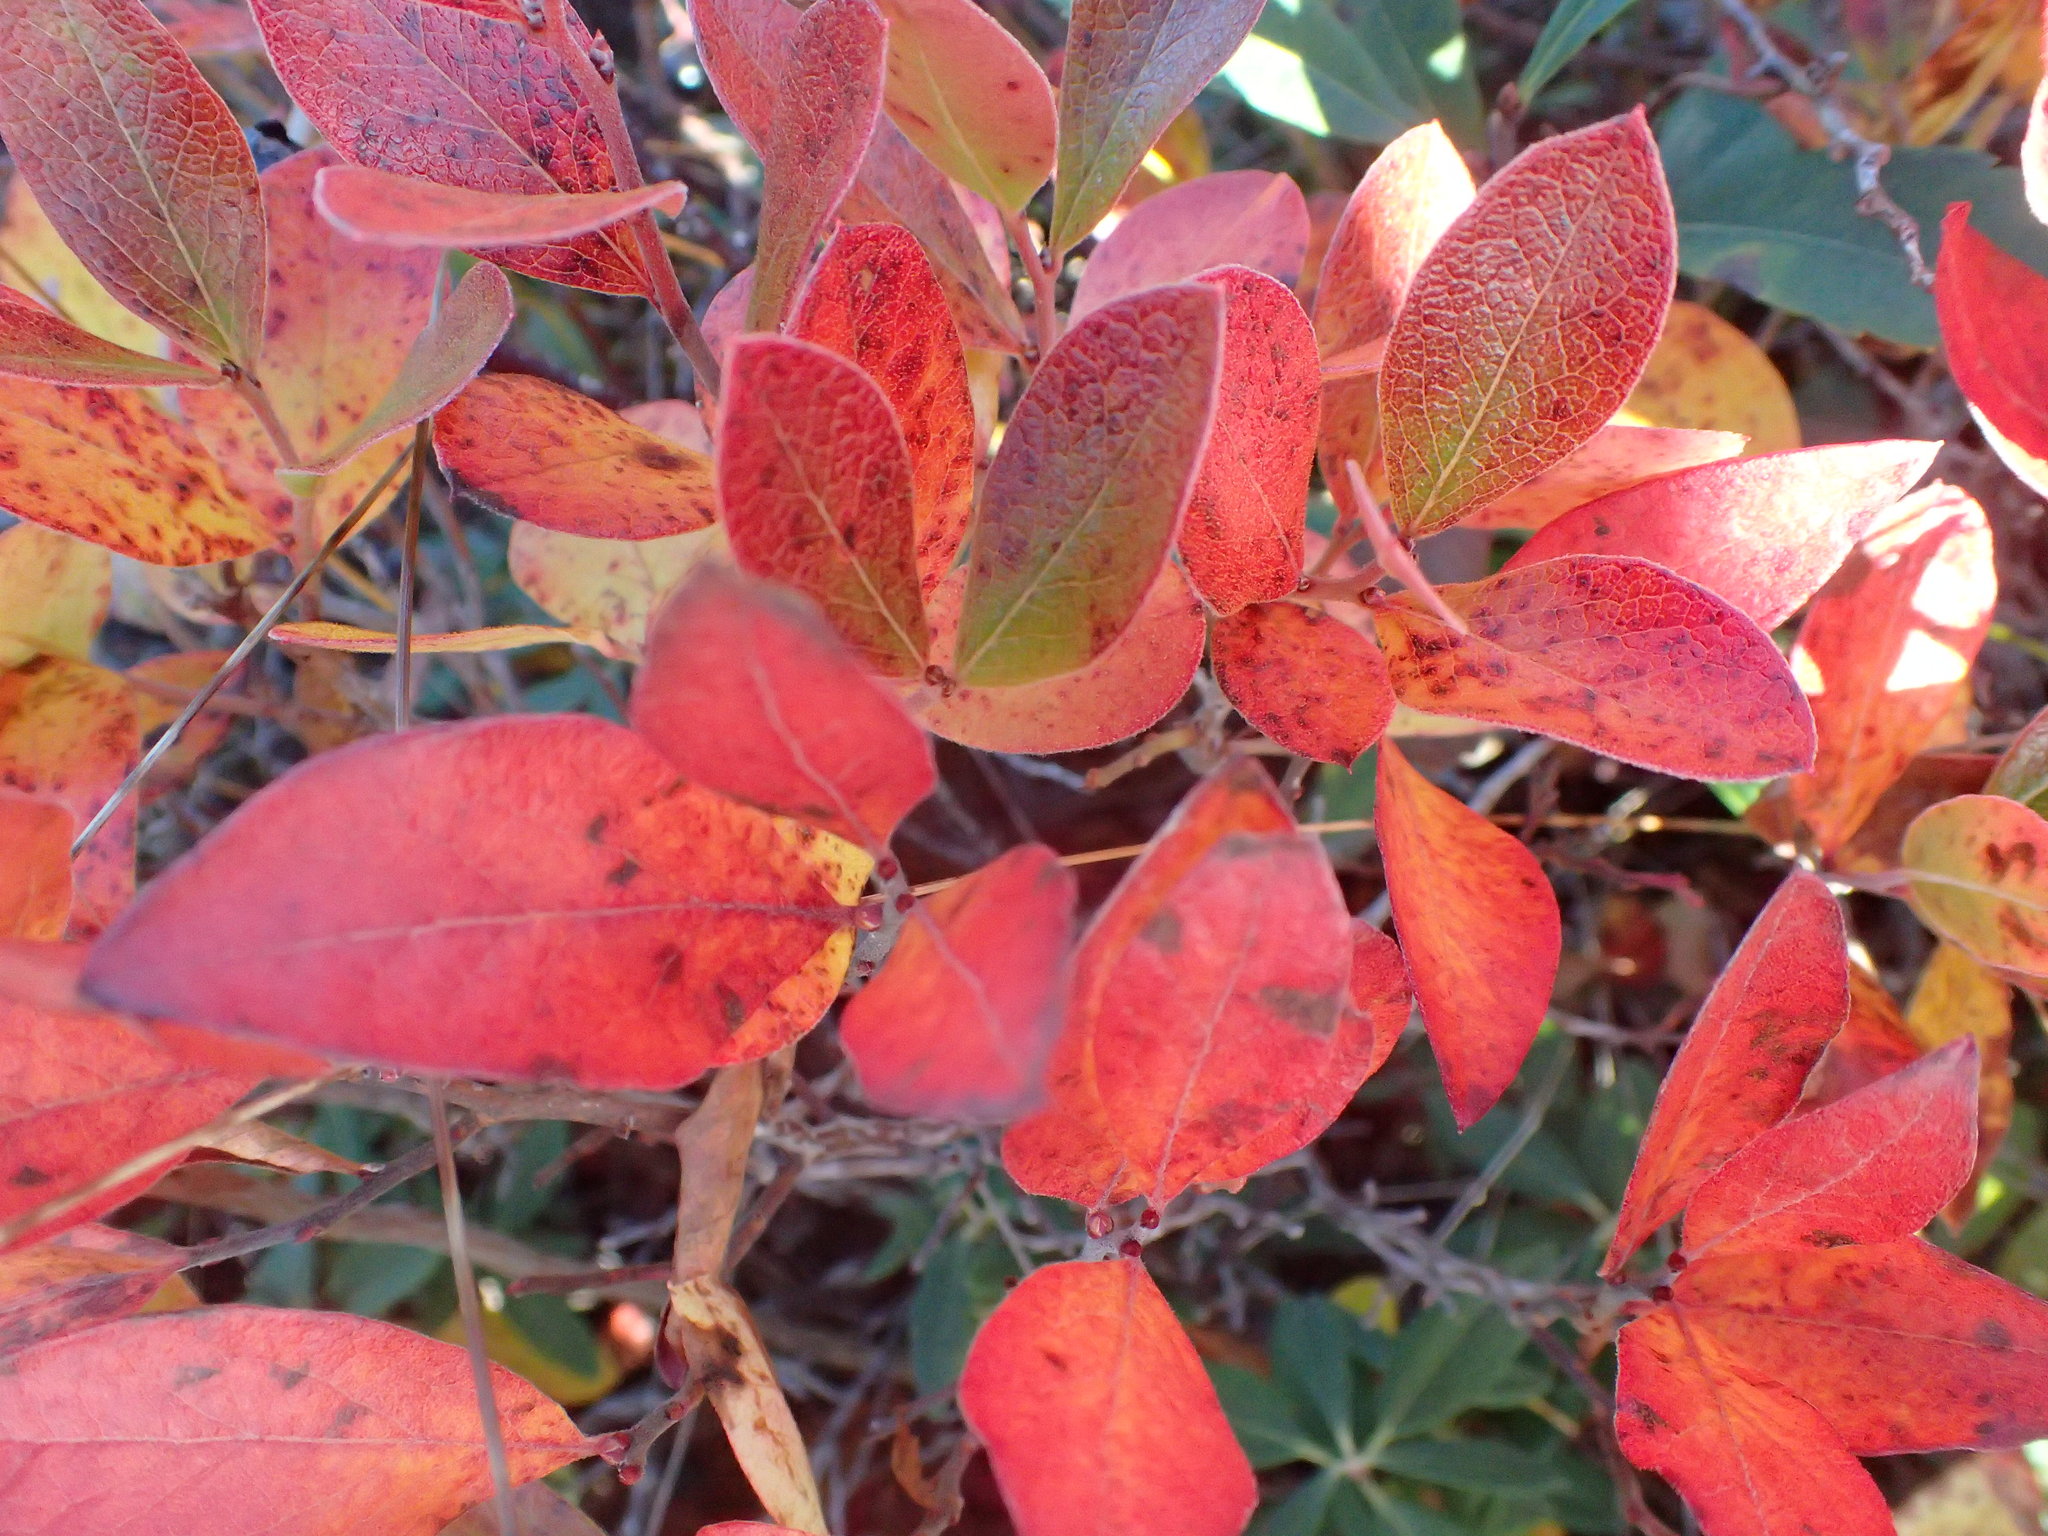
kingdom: Plantae
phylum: Tracheophyta
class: Magnoliopsida
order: Ericales
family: Ericaceae
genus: Gaylussacia
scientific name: Gaylussacia bigeloviana
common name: Bog huckleberry
